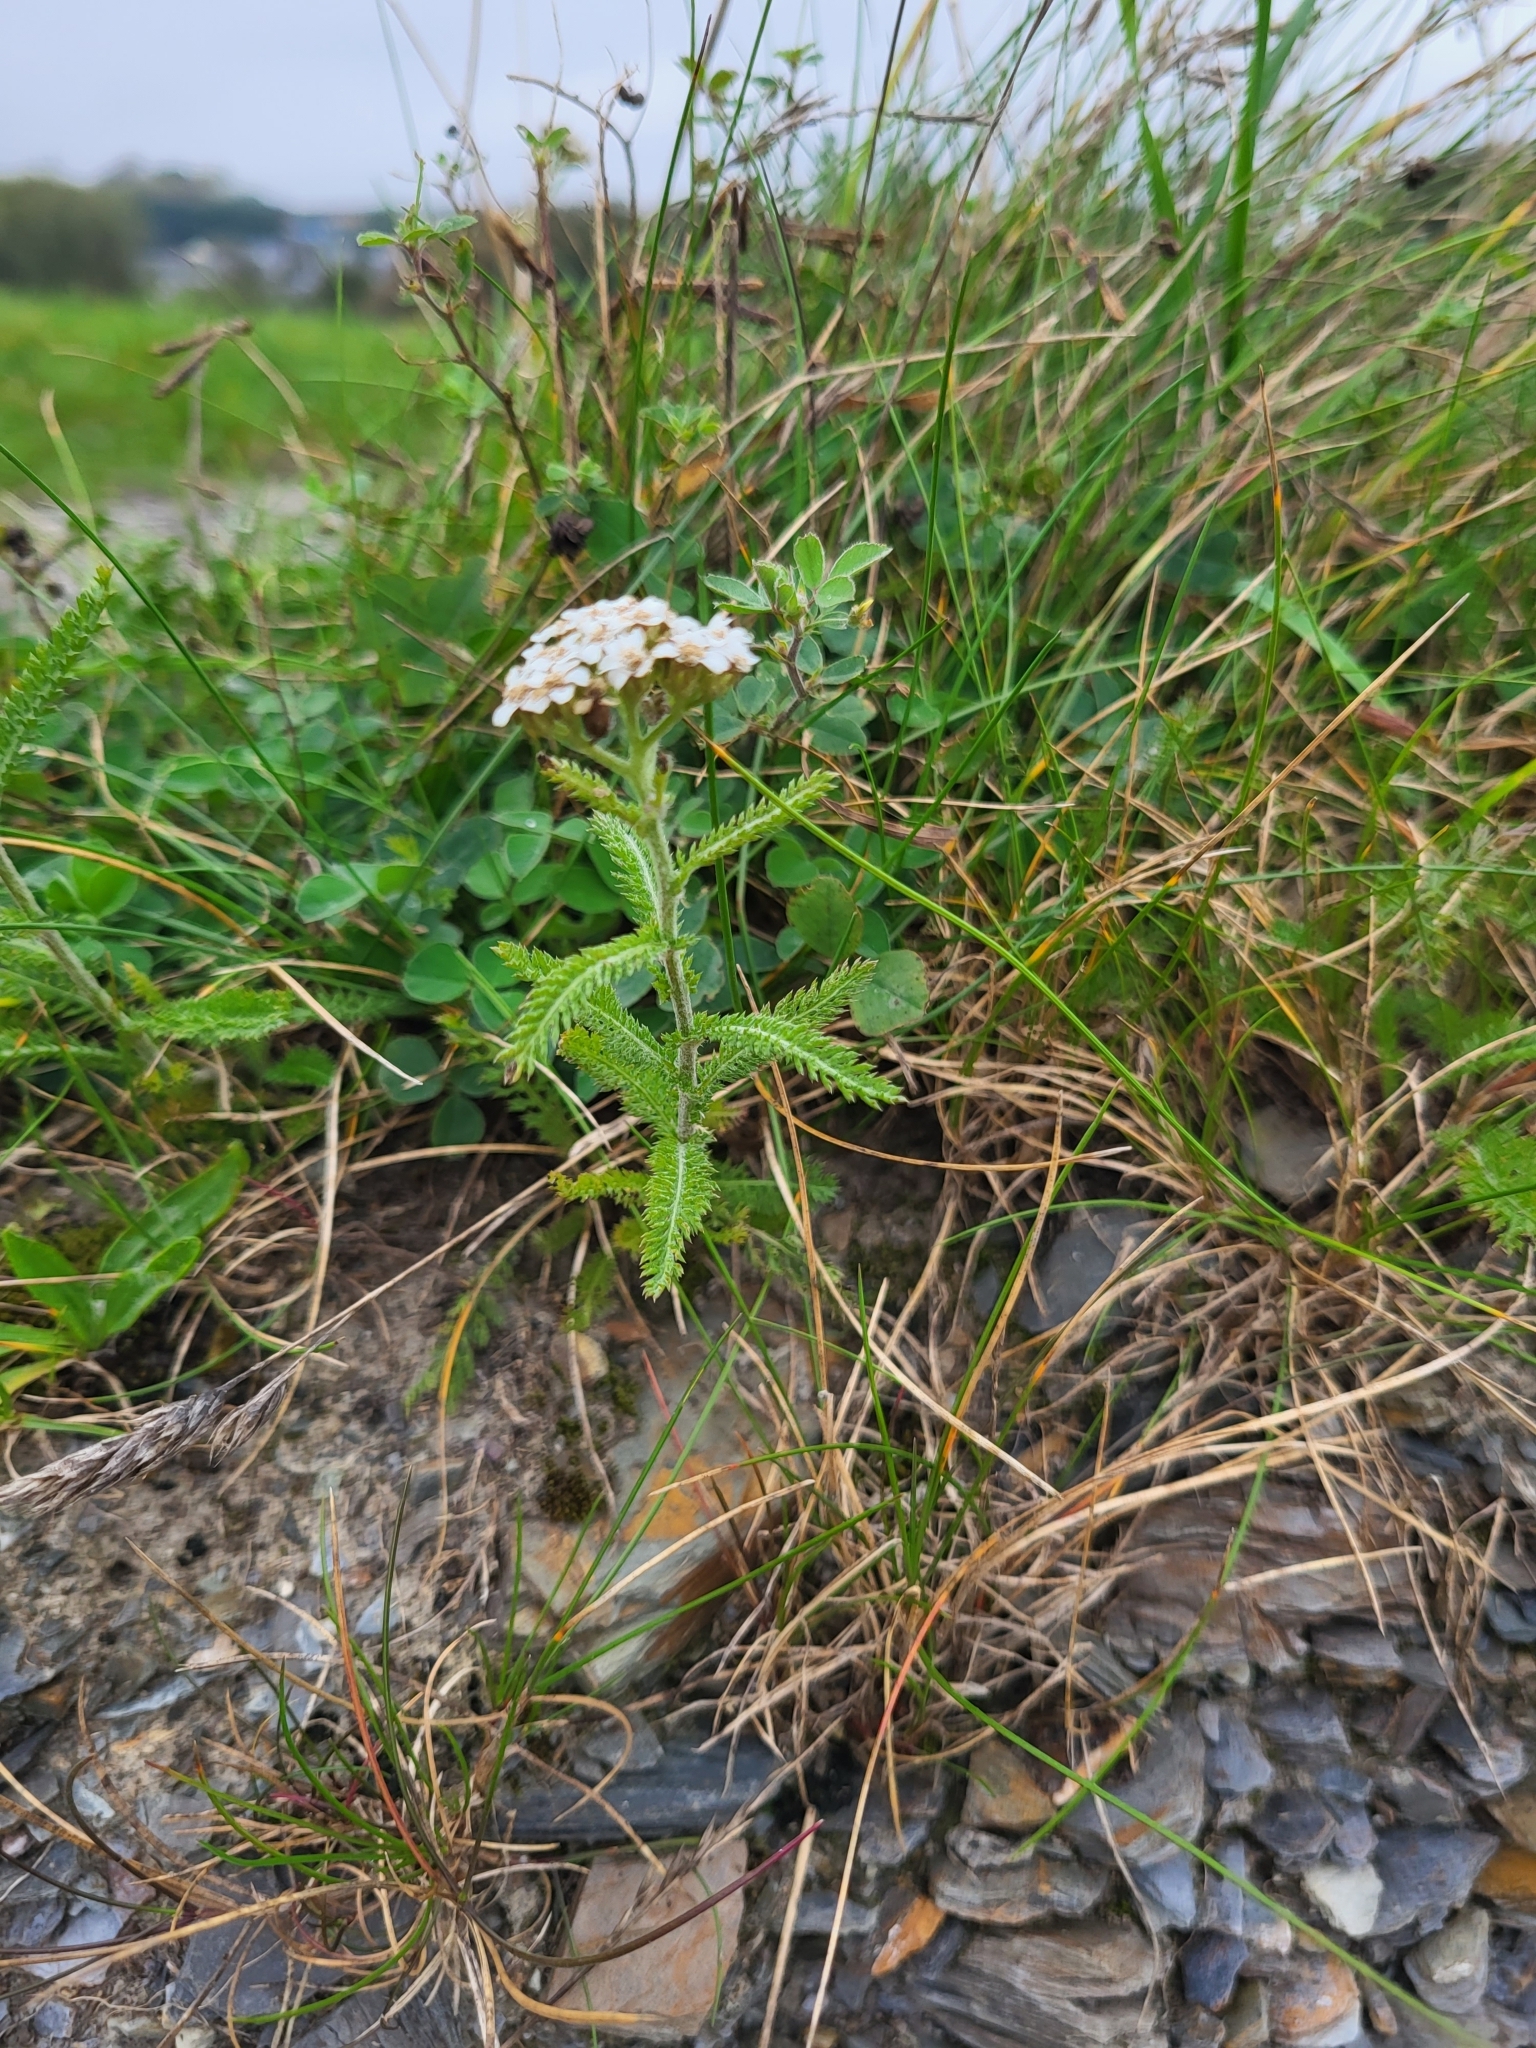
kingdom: Plantae
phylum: Tracheophyta
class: Magnoliopsida
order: Asterales
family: Asteraceae
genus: Achillea
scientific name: Achillea millefolium
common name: Yarrow
